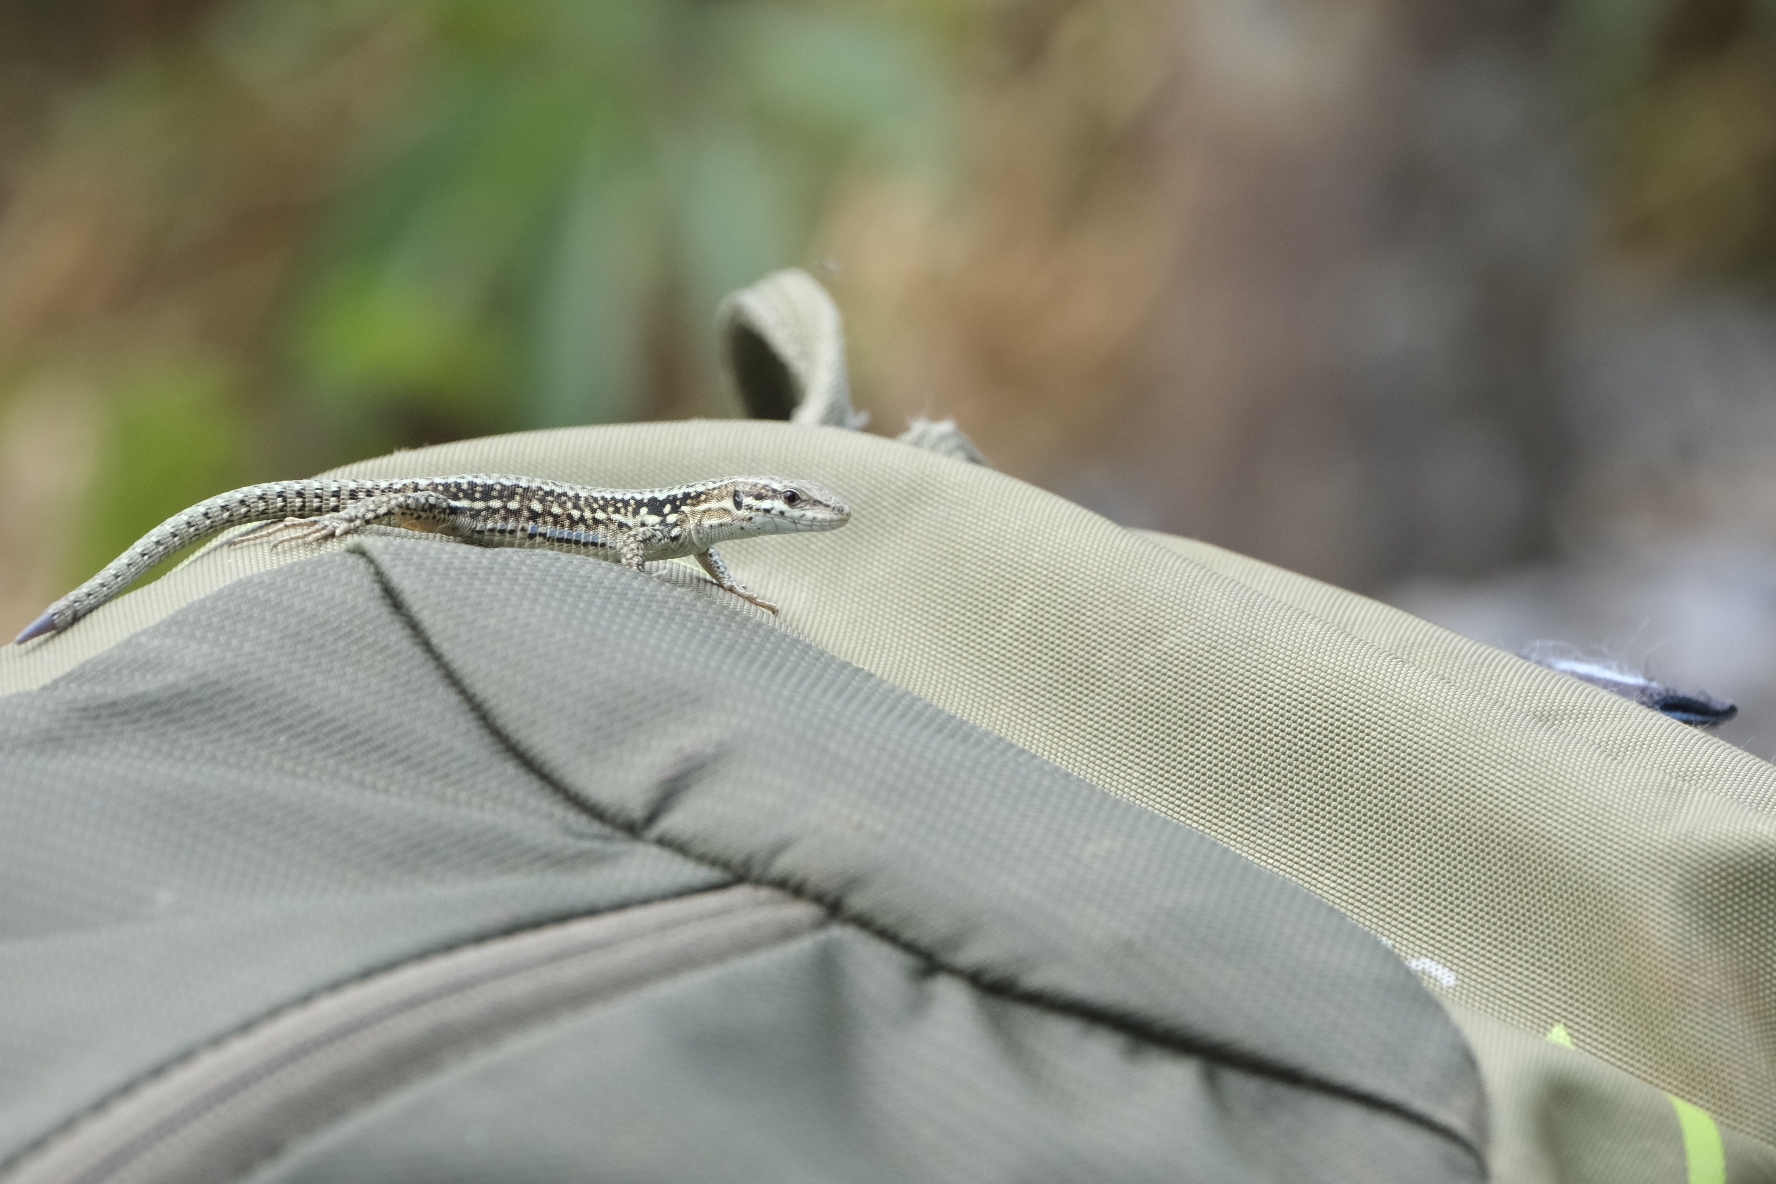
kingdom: Animalia
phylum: Chordata
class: Squamata
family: Lacertidae
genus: Podarcis
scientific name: Podarcis muralis
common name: Common wall lizard
